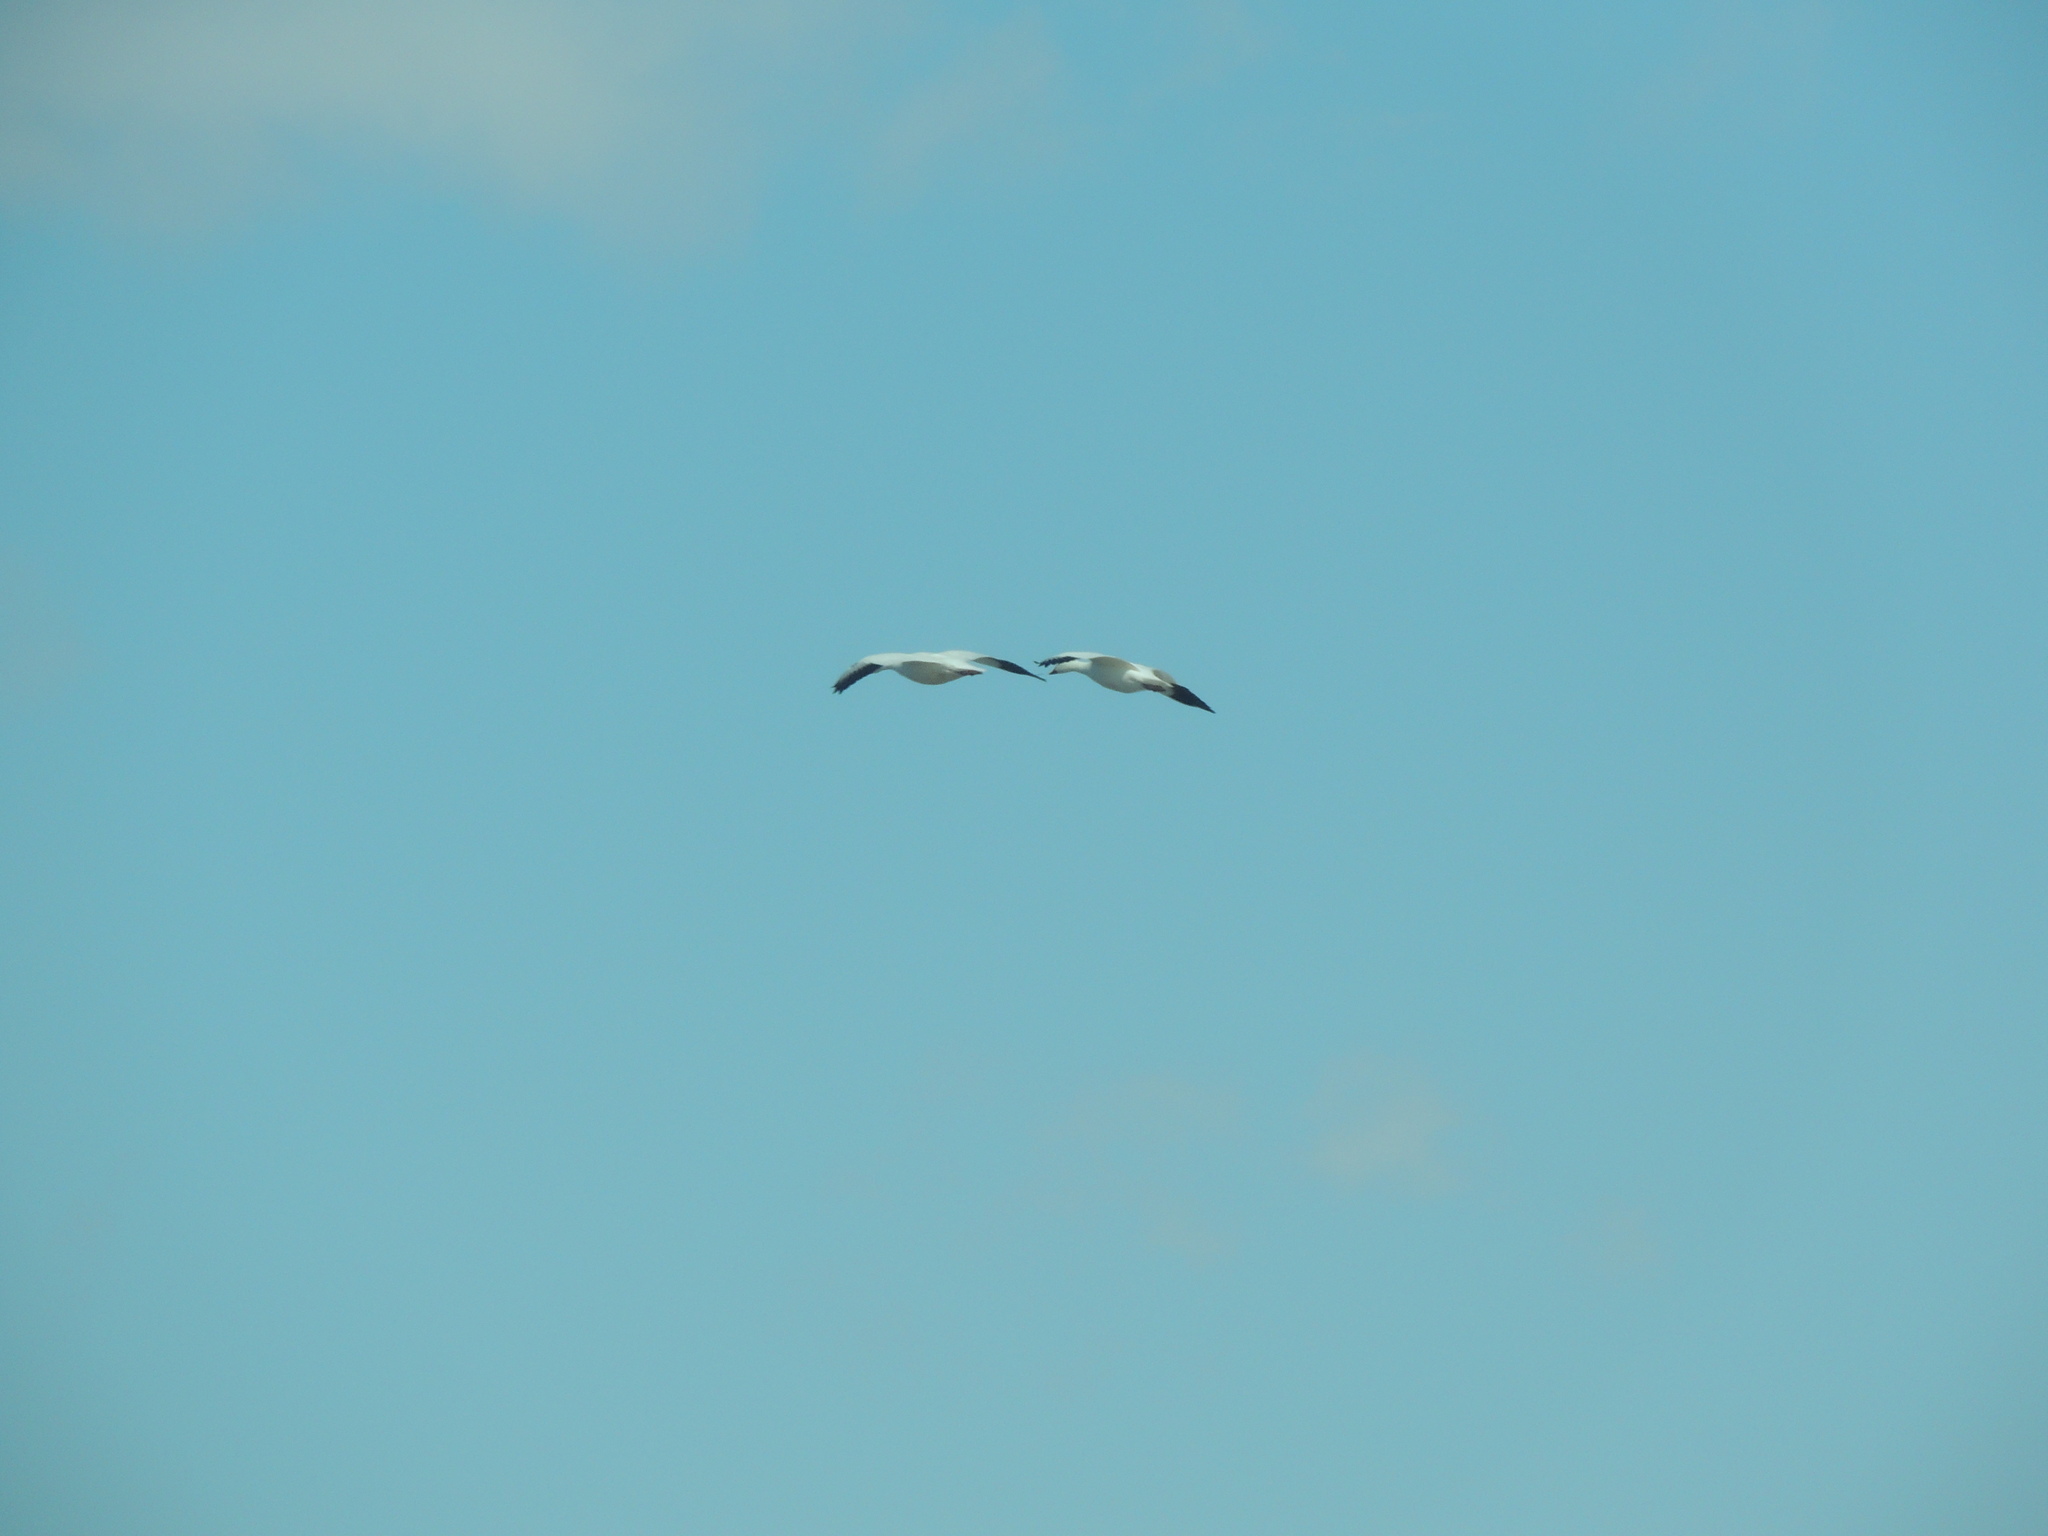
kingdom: Animalia
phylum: Chordata
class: Aves
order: Anseriformes
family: Anatidae
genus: Anser
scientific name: Anser caerulescens
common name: Snow goose
